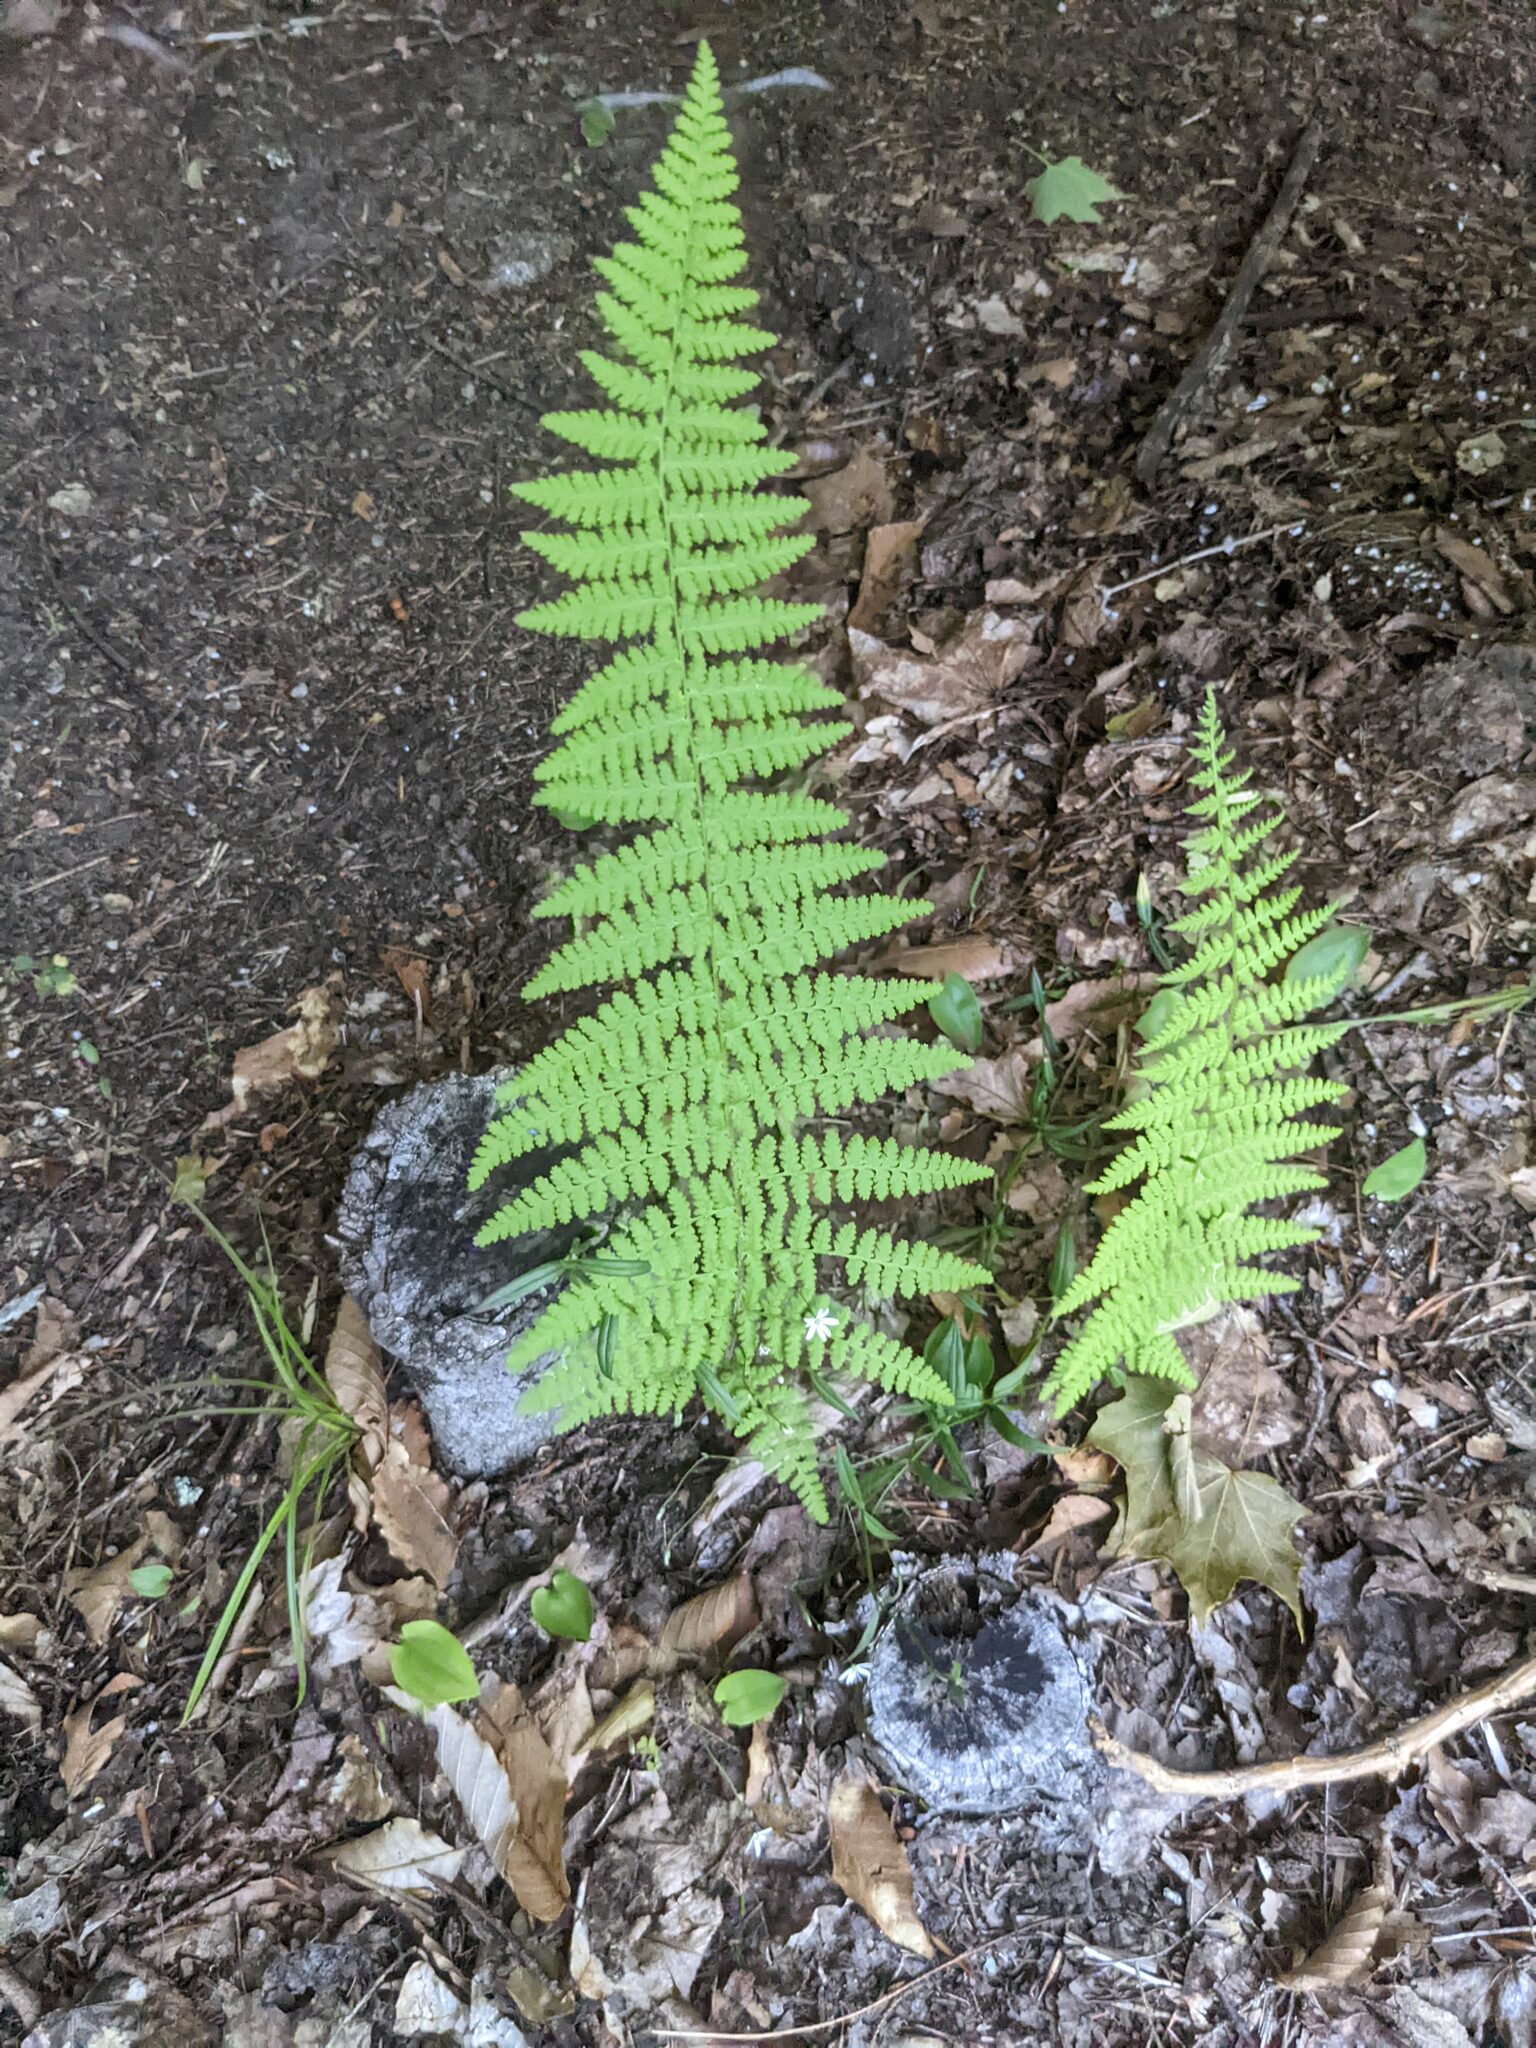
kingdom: Plantae
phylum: Tracheophyta
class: Polypodiopsida
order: Polypodiales
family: Dennstaedtiaceae
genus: Sitobolium
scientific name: Sitobolium punctilobum
